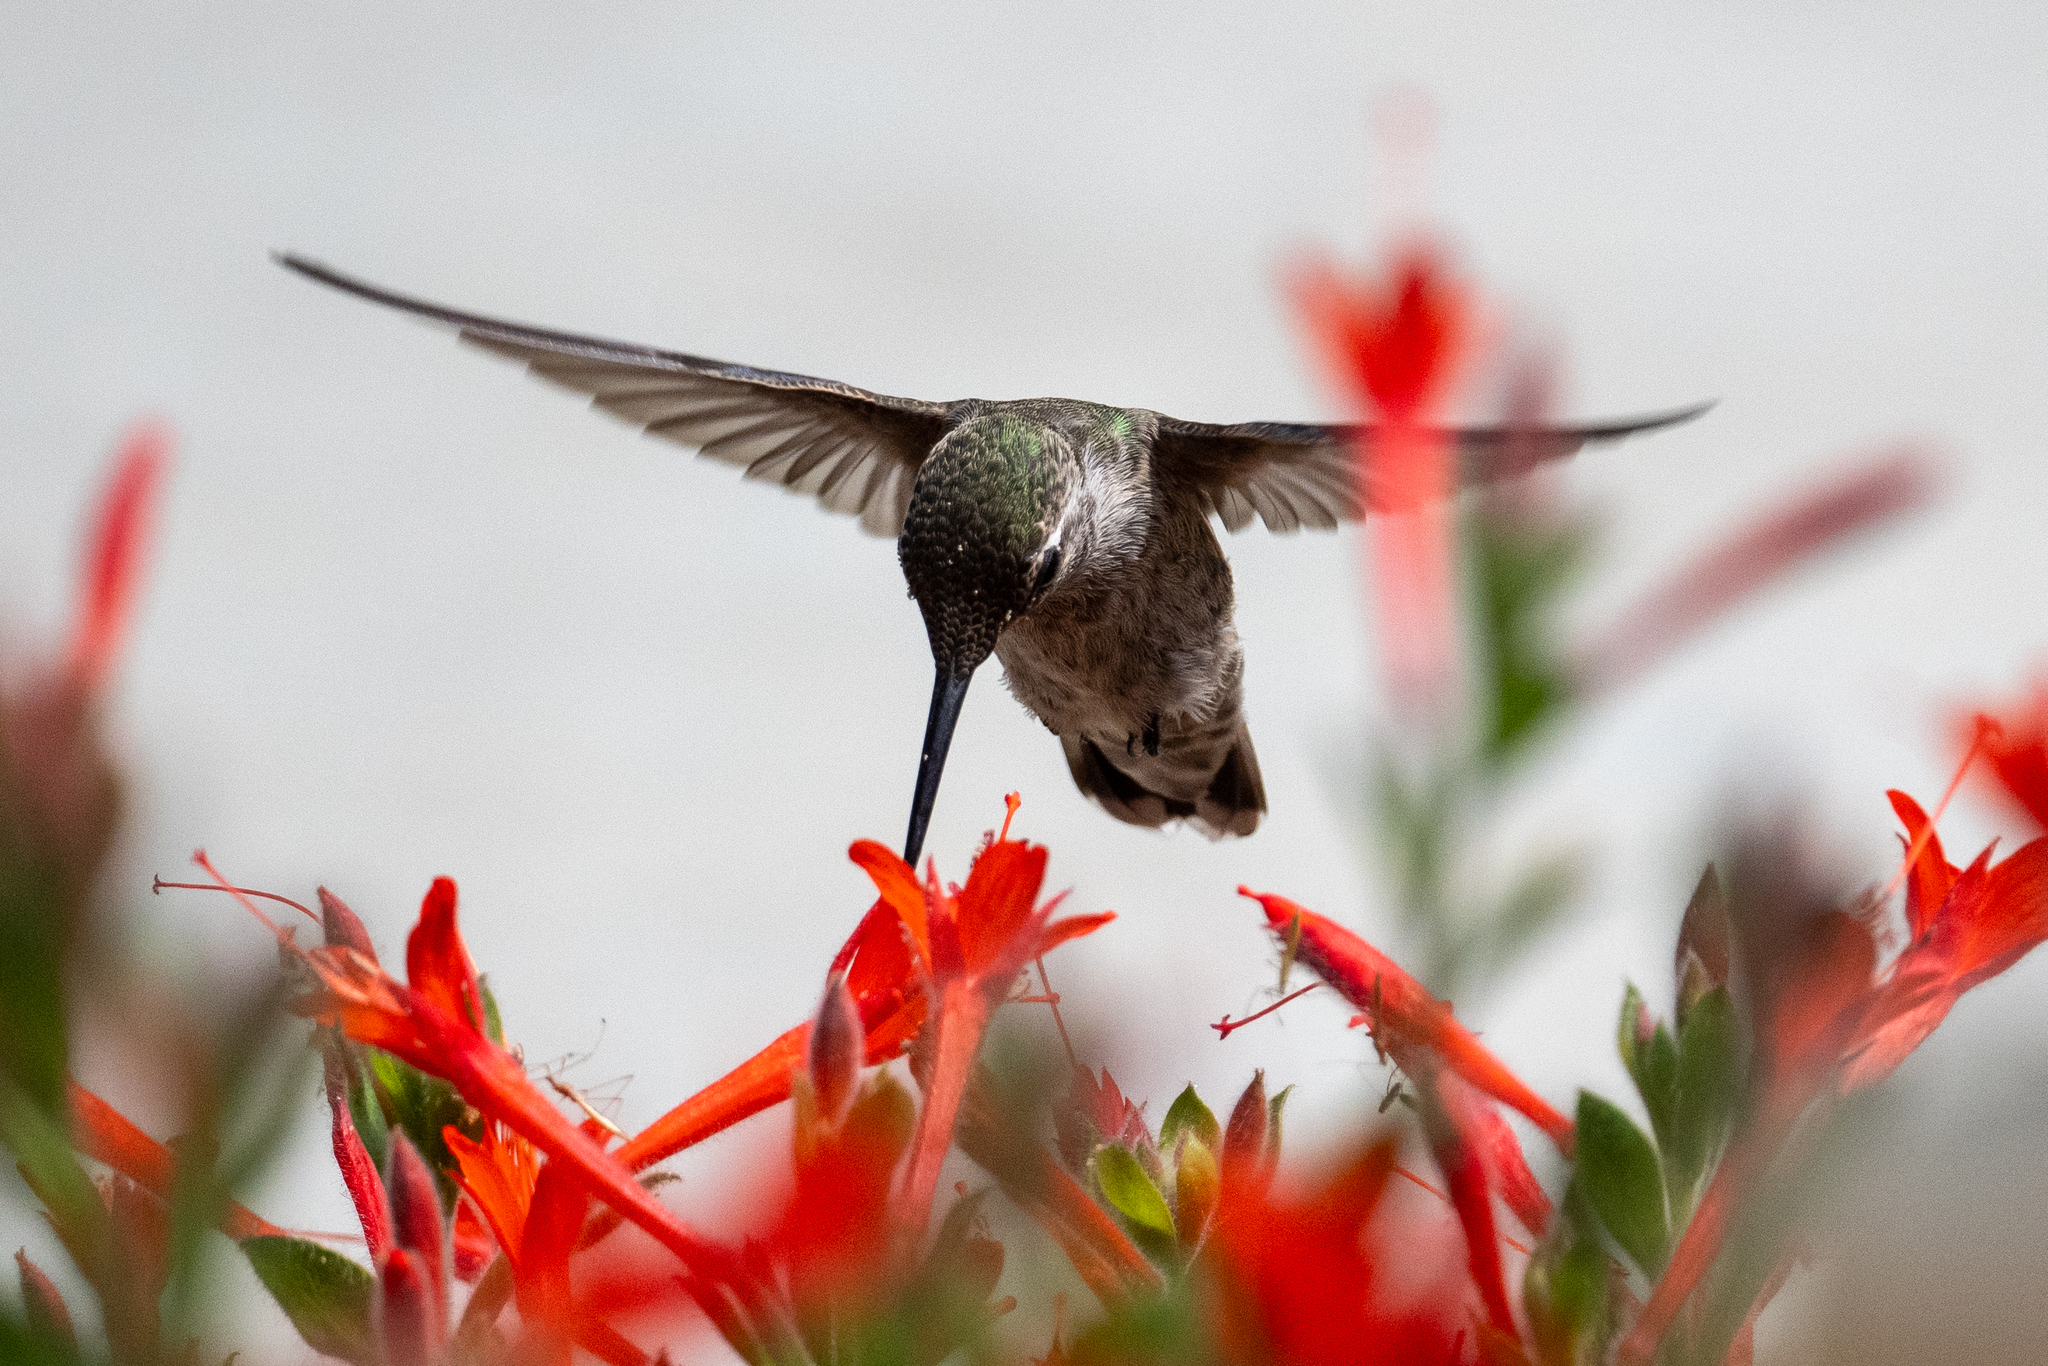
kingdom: Animalia
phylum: Chordata
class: Aves
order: Apodiformes
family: Trochilidae
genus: Calypte
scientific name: Calypte anna
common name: Anna's hummingbird
